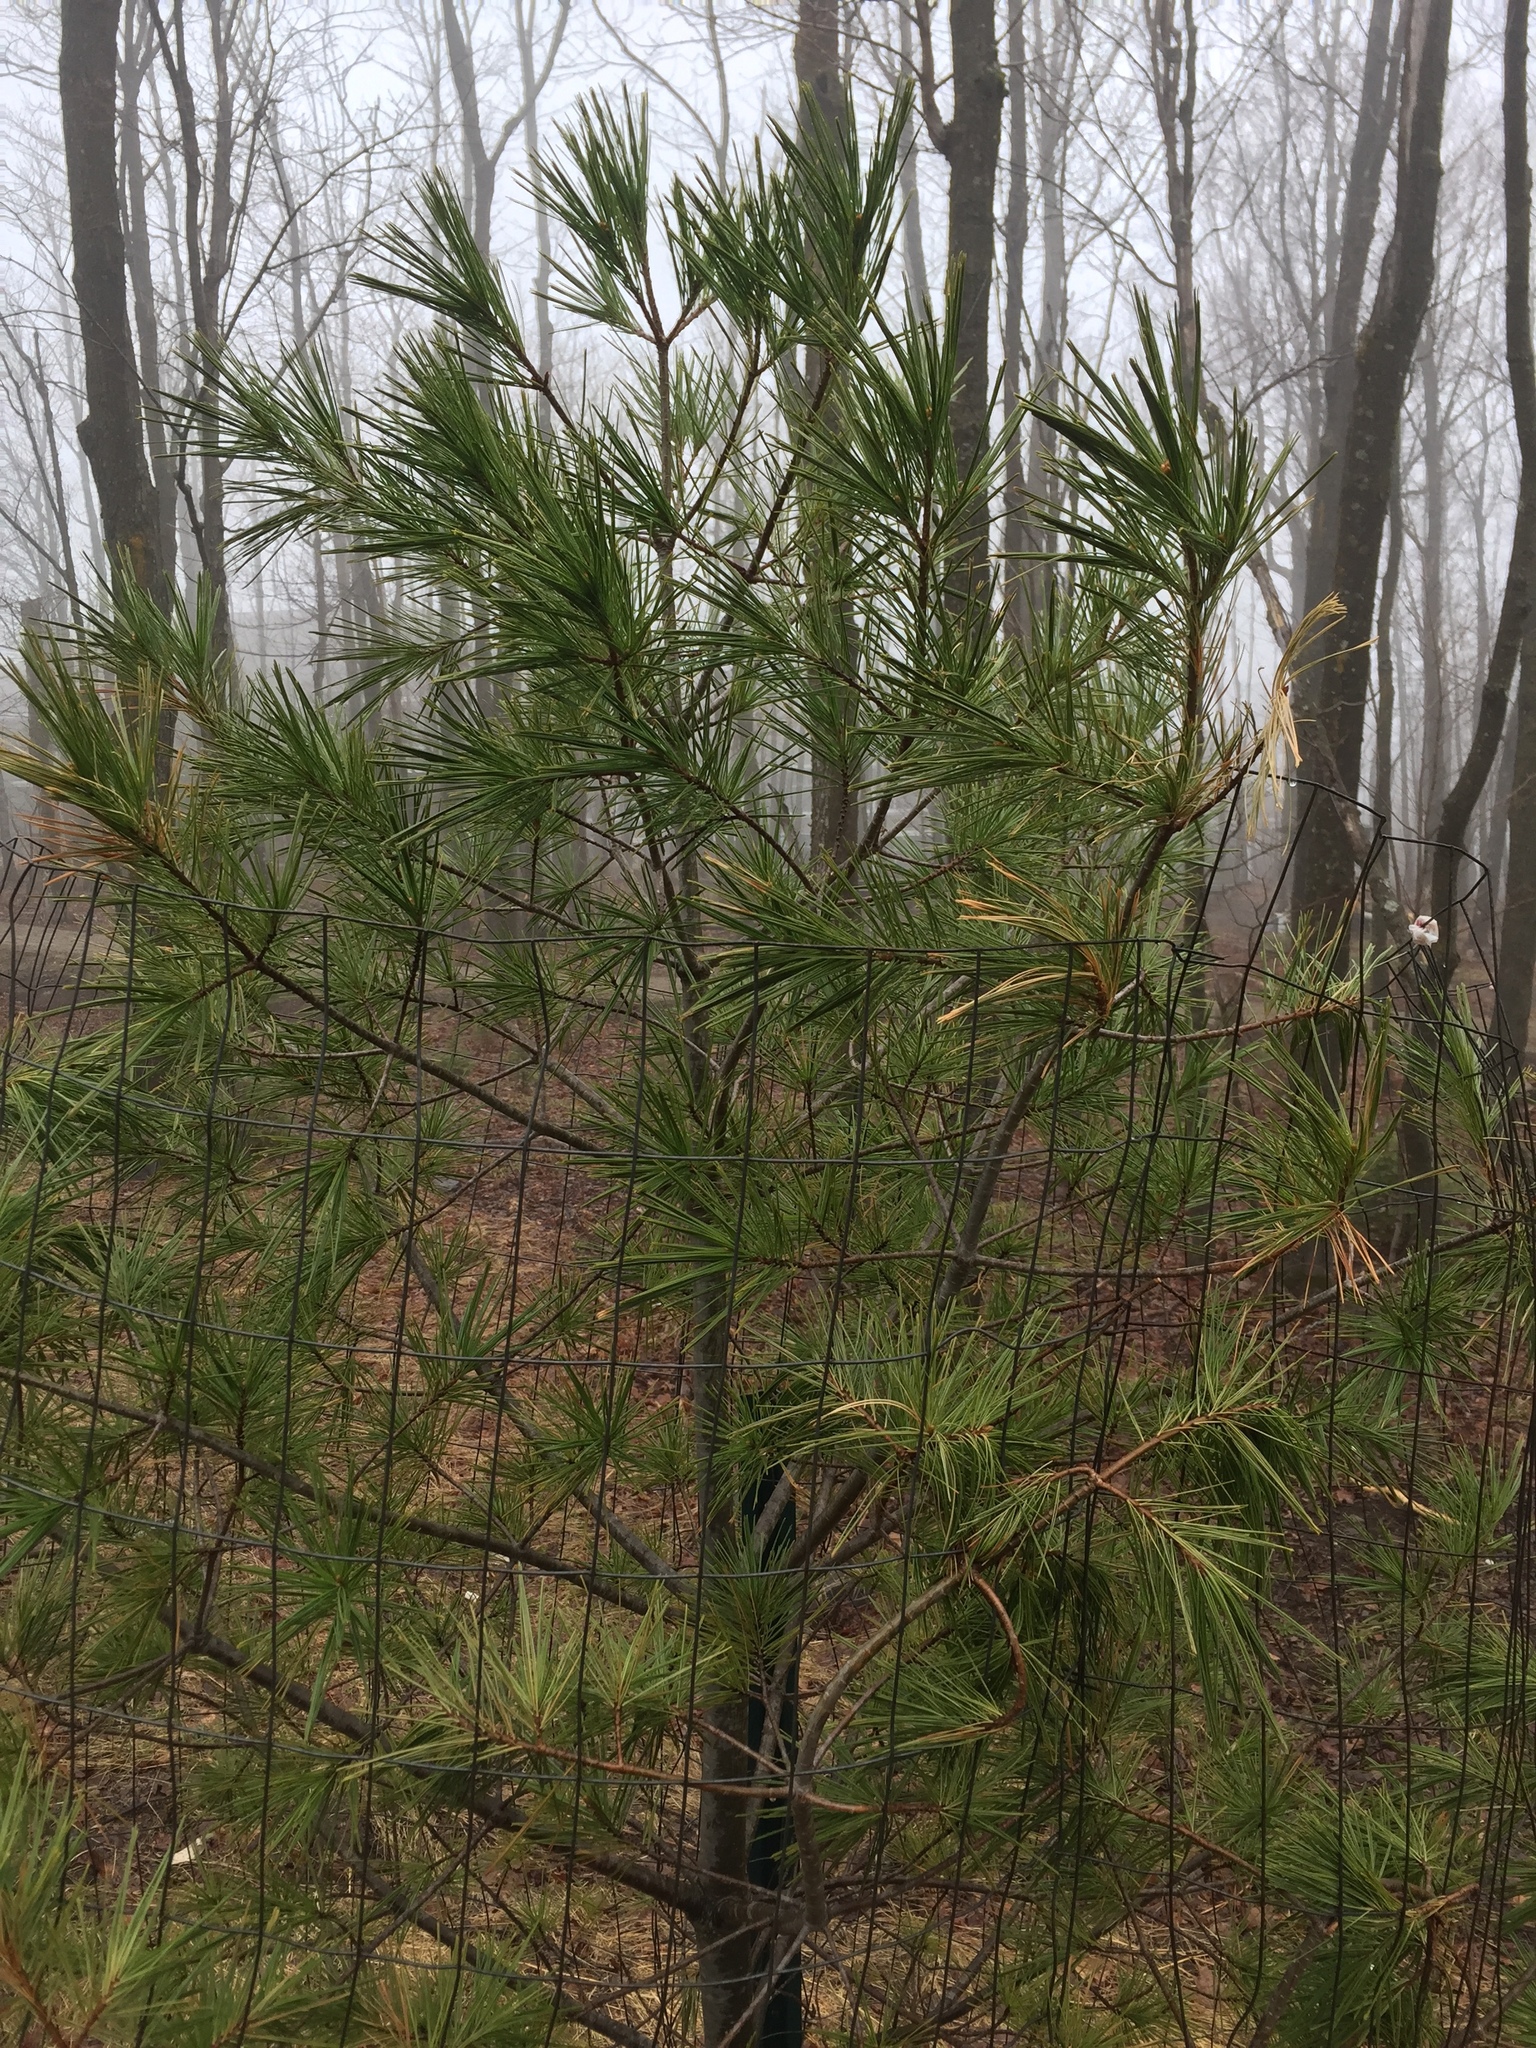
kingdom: Plantae
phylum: Tracheophyta
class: Pinopsida
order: Pinales
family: Pinaceae
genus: Pinus
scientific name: Pinus strobus
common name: Weymouth pine
